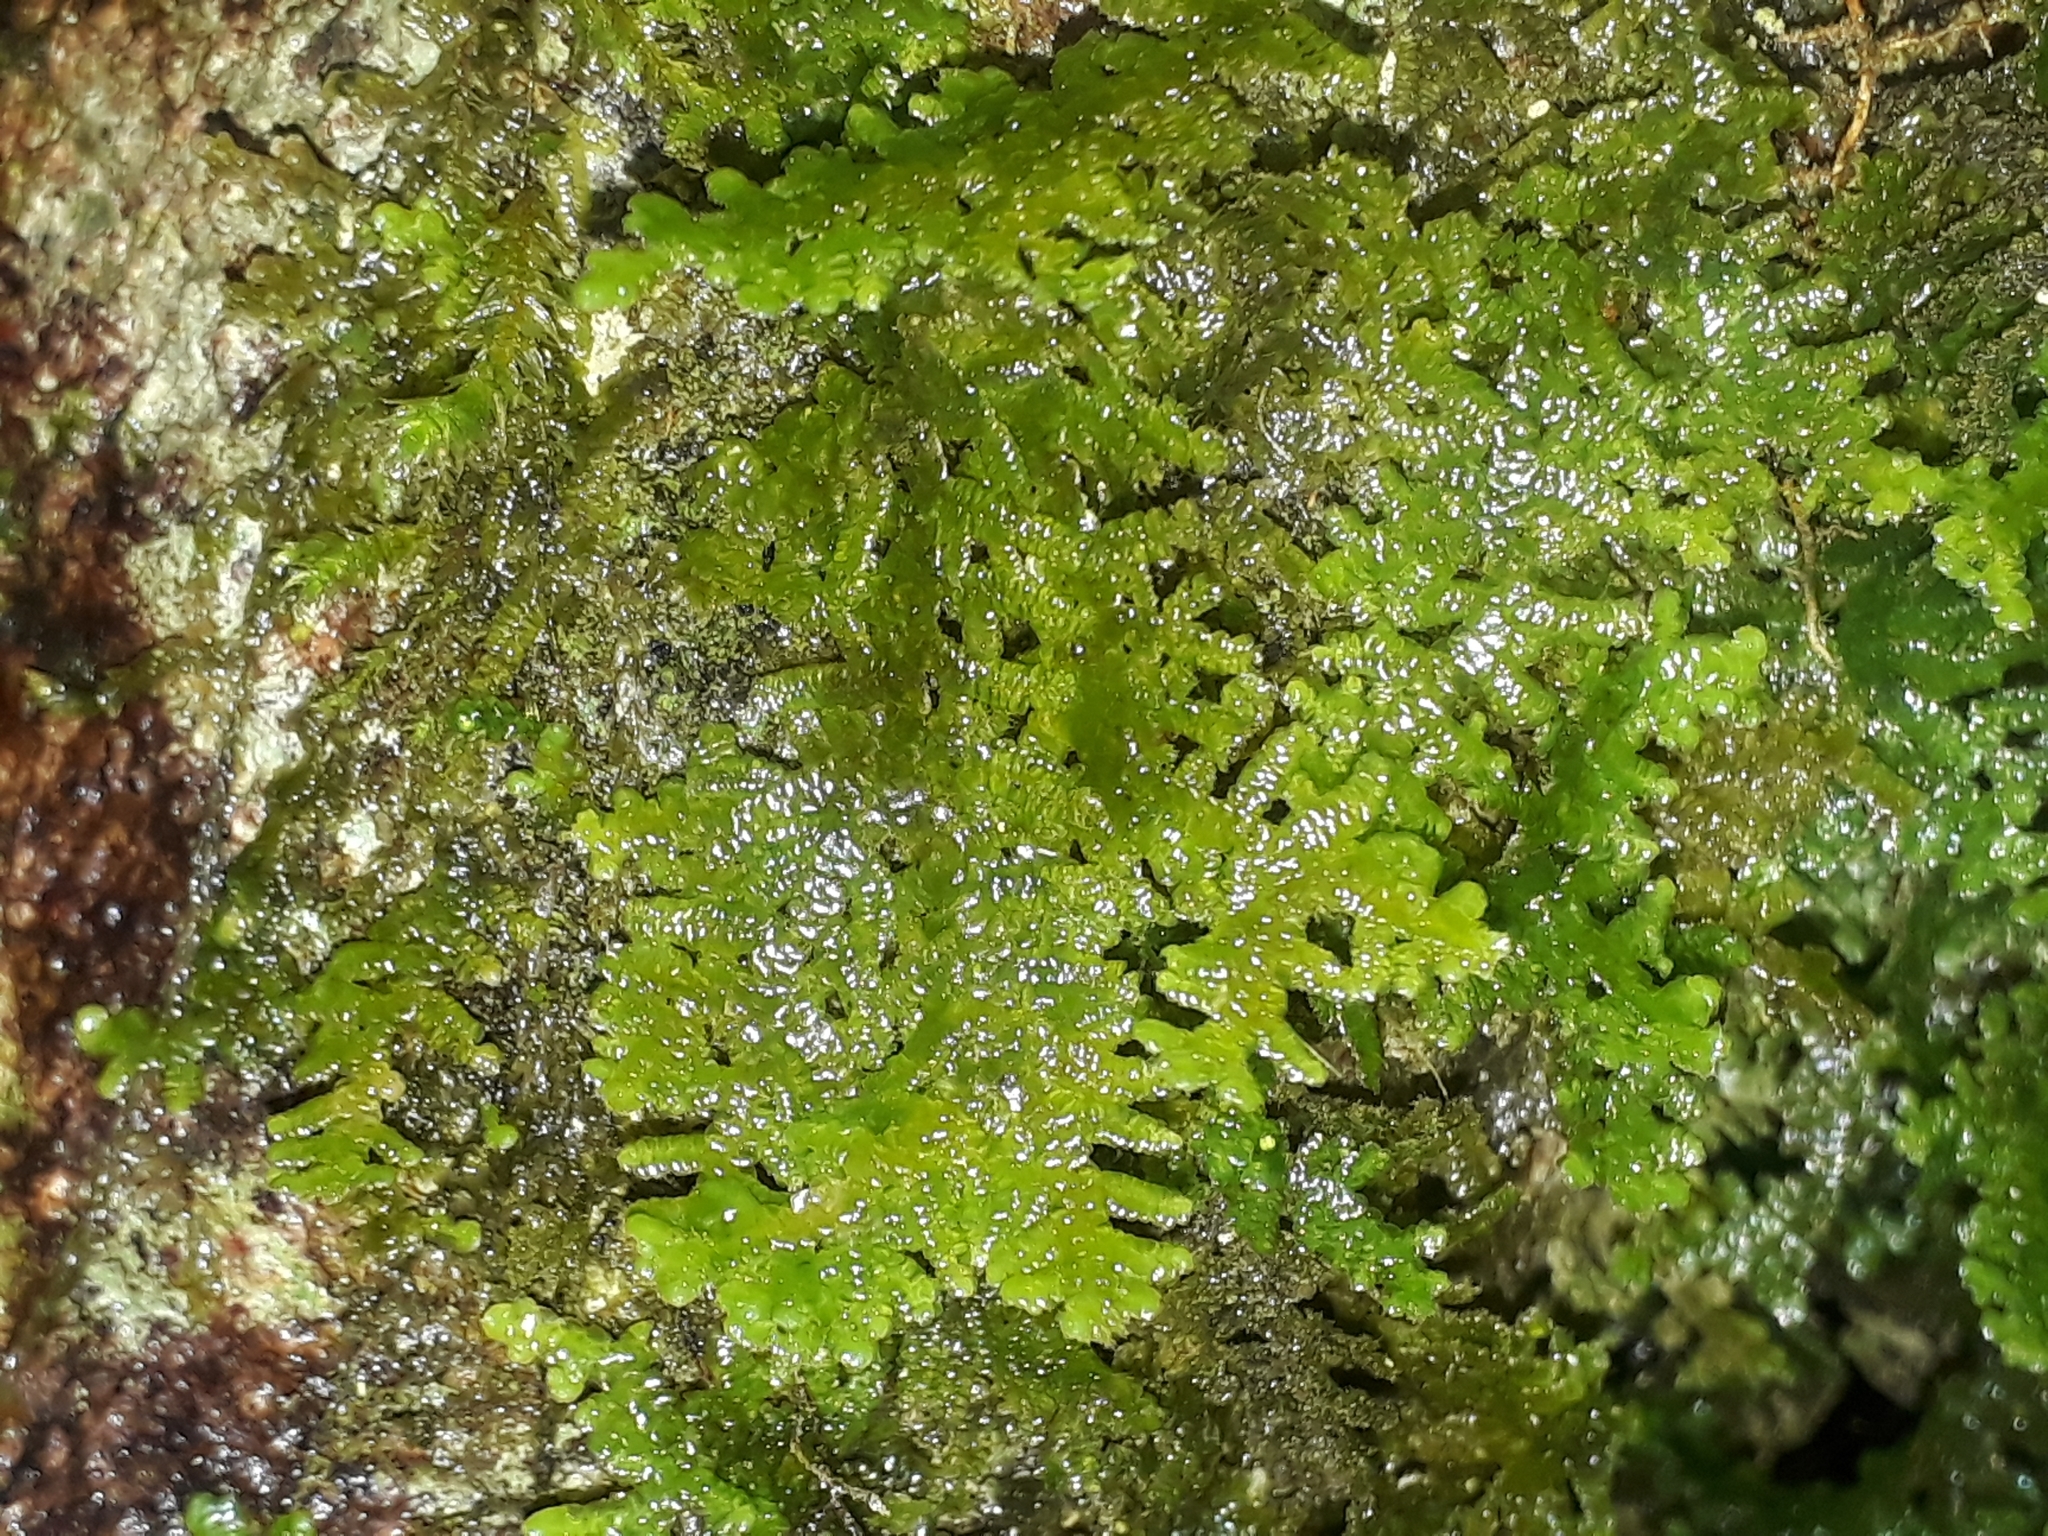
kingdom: Plantae
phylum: Marchantiophyta
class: Jungermanniopsida
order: Porellales
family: Lepidolaenaceae
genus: Lepidolaena
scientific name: Lepidolaena taylorii
